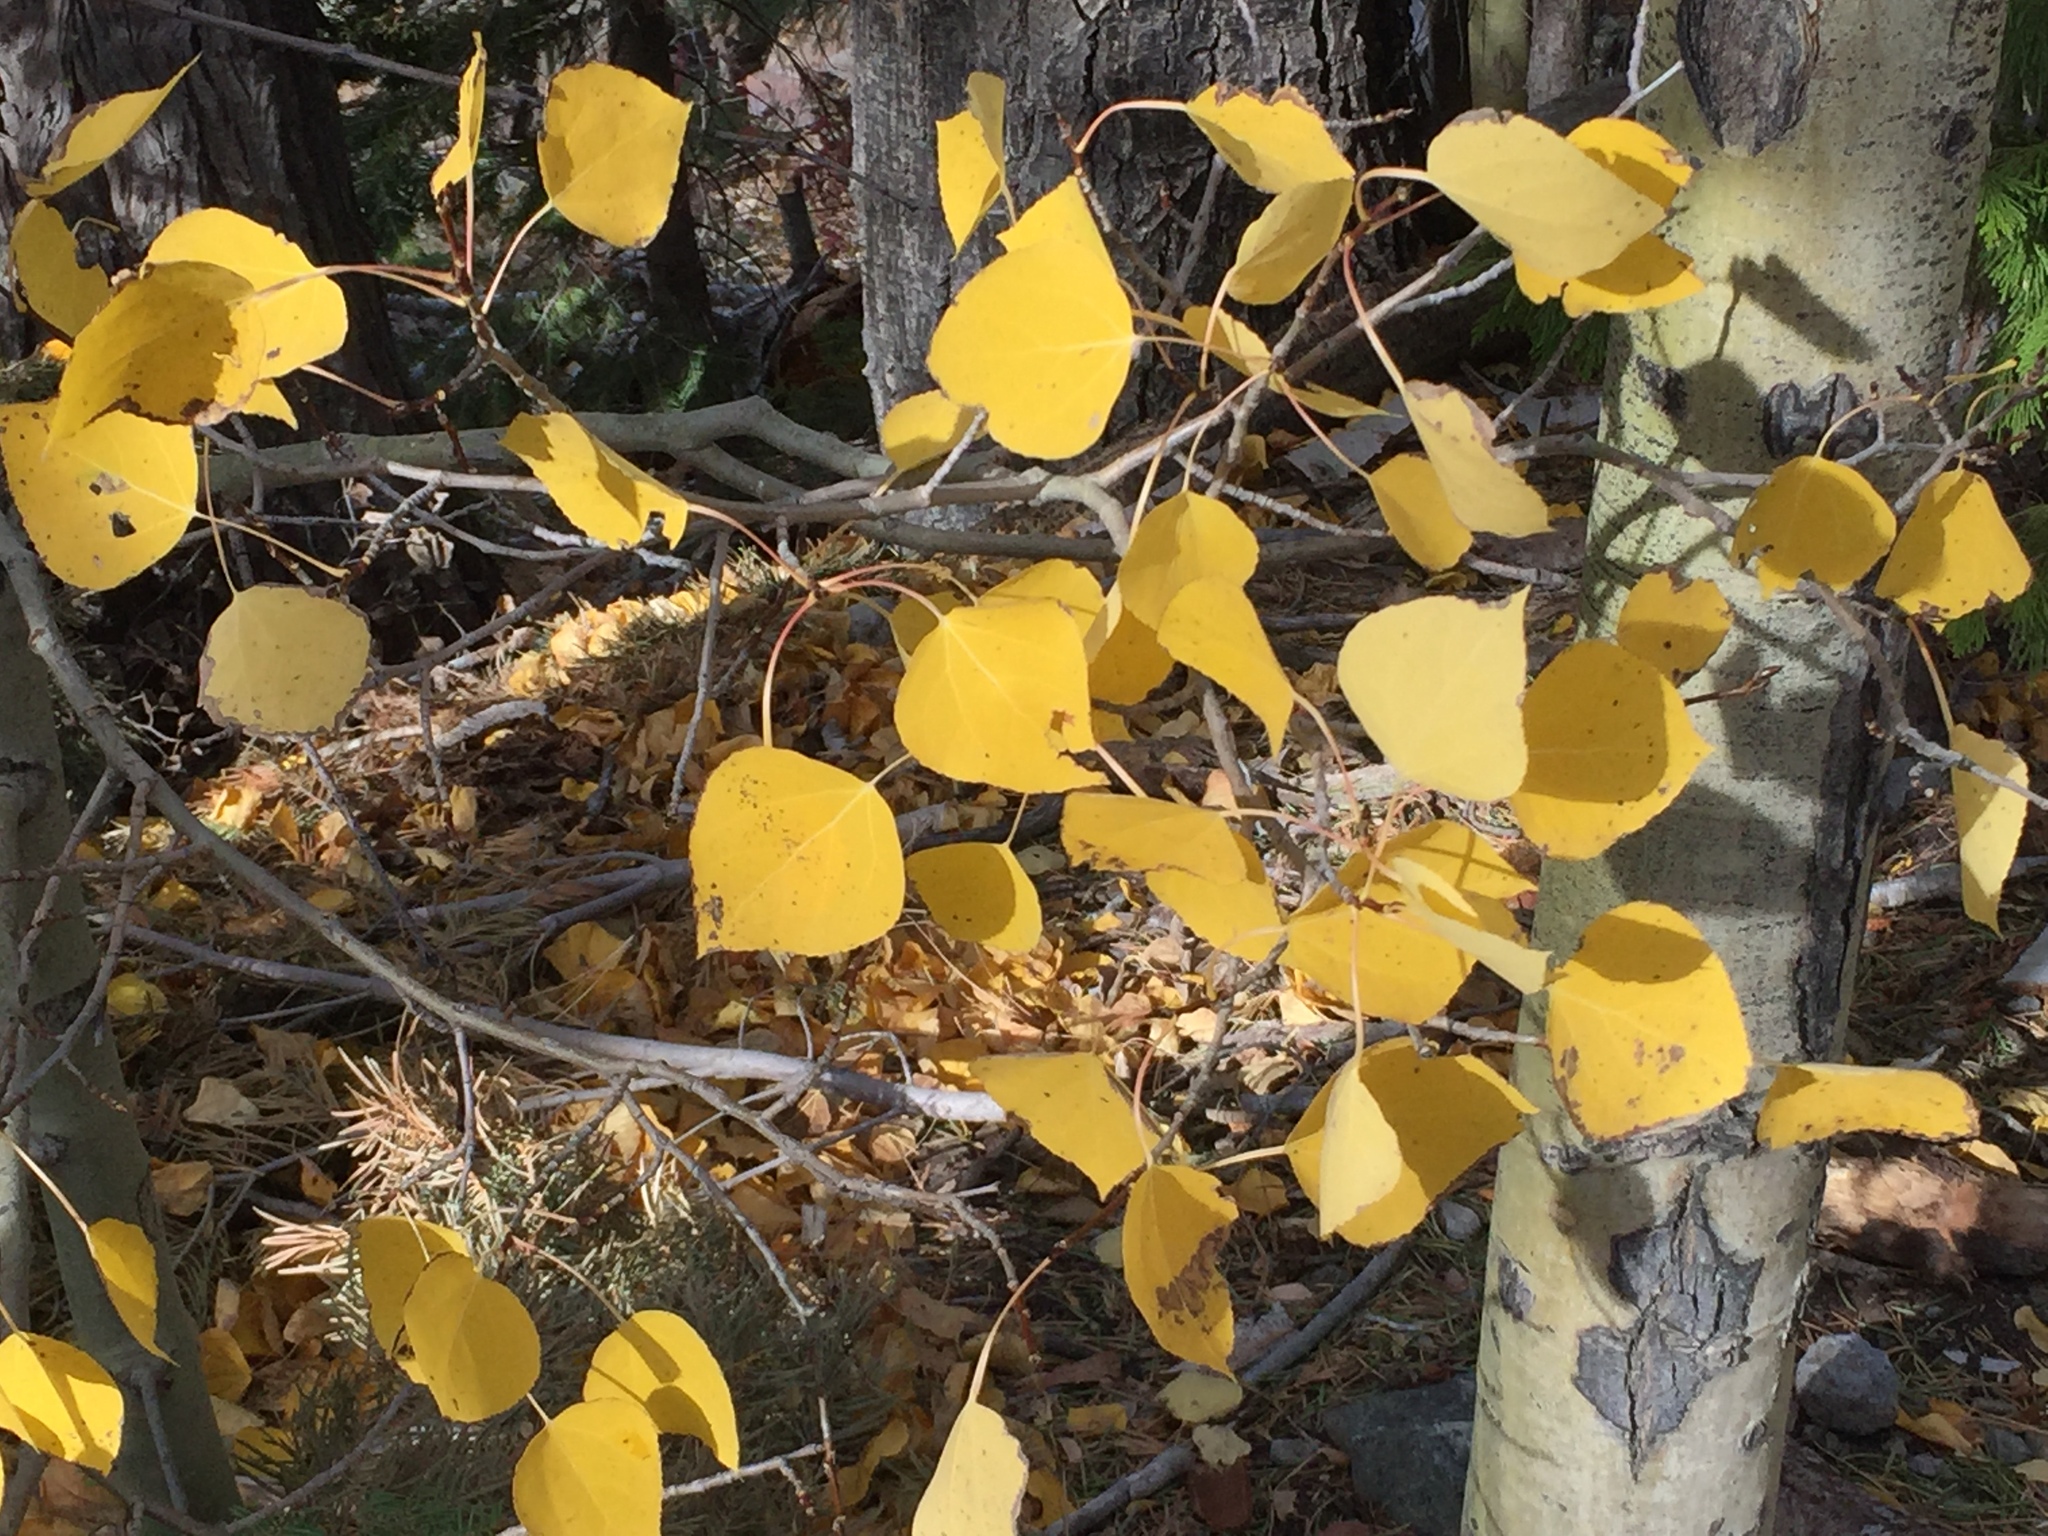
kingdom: Plantae
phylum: Tracheophyta
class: Magnoliopsida
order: Malpighiales
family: Salicaceae
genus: Populus
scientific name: Populus tremuloides
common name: Quaking aspen
